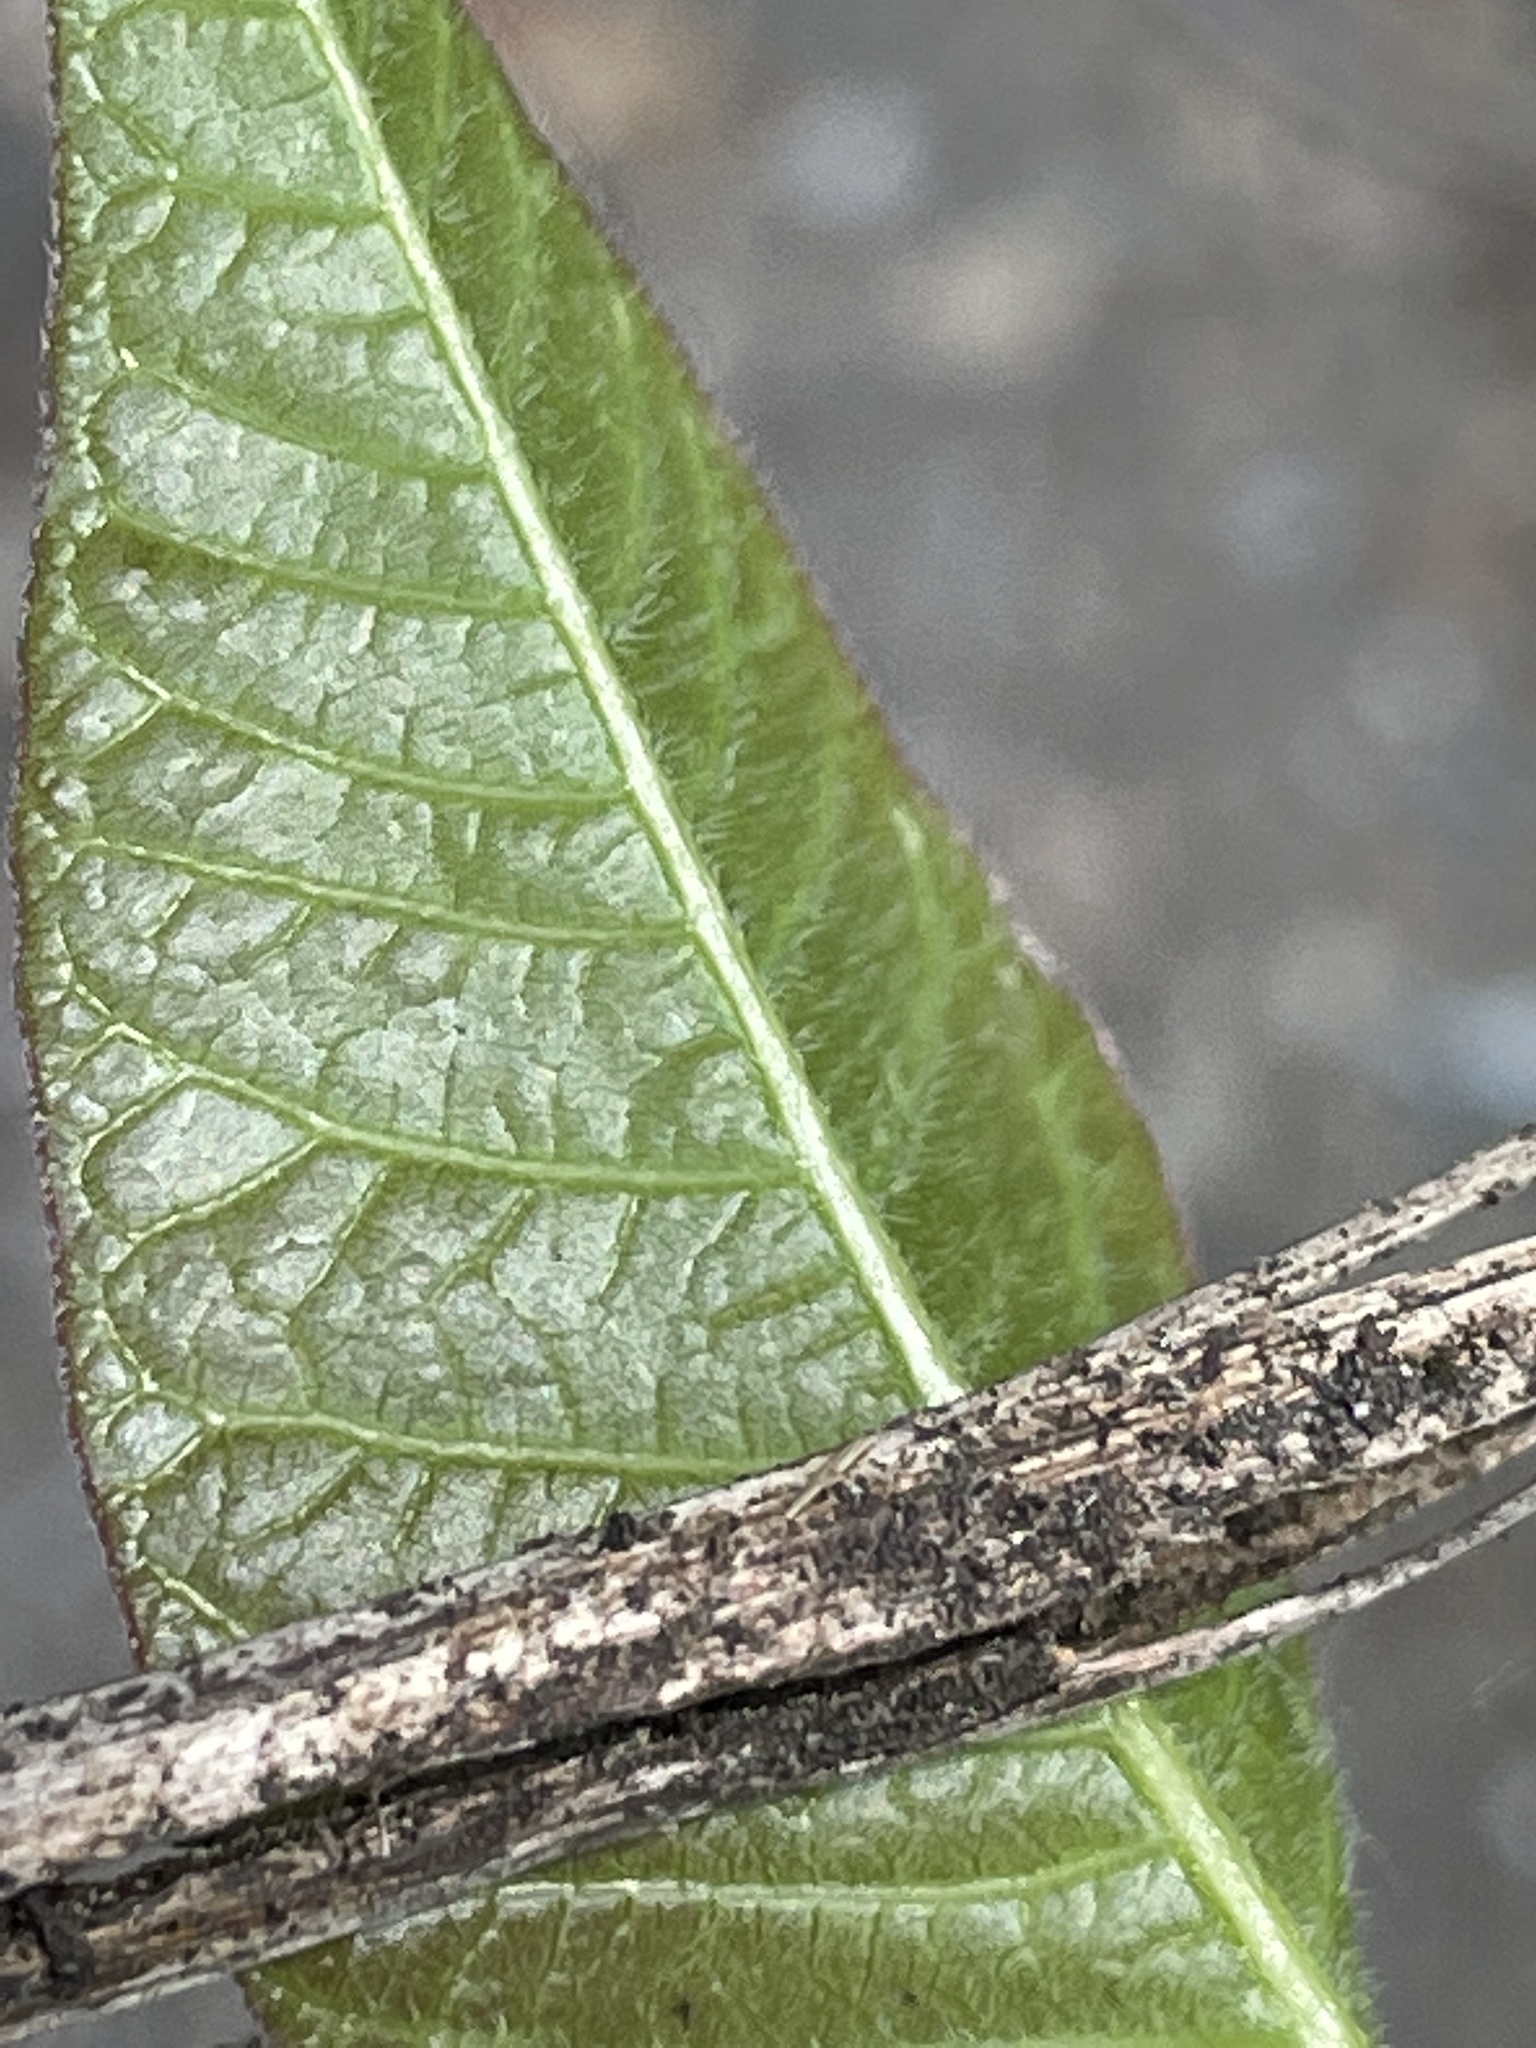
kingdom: Plantae
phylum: Tracheophyta
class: Magnoliopsida
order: Sapindales
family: Anacardiaceae
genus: Toxicodendron
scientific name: Toxicodendron rydbergii
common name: Rydberg's poison-ivy
